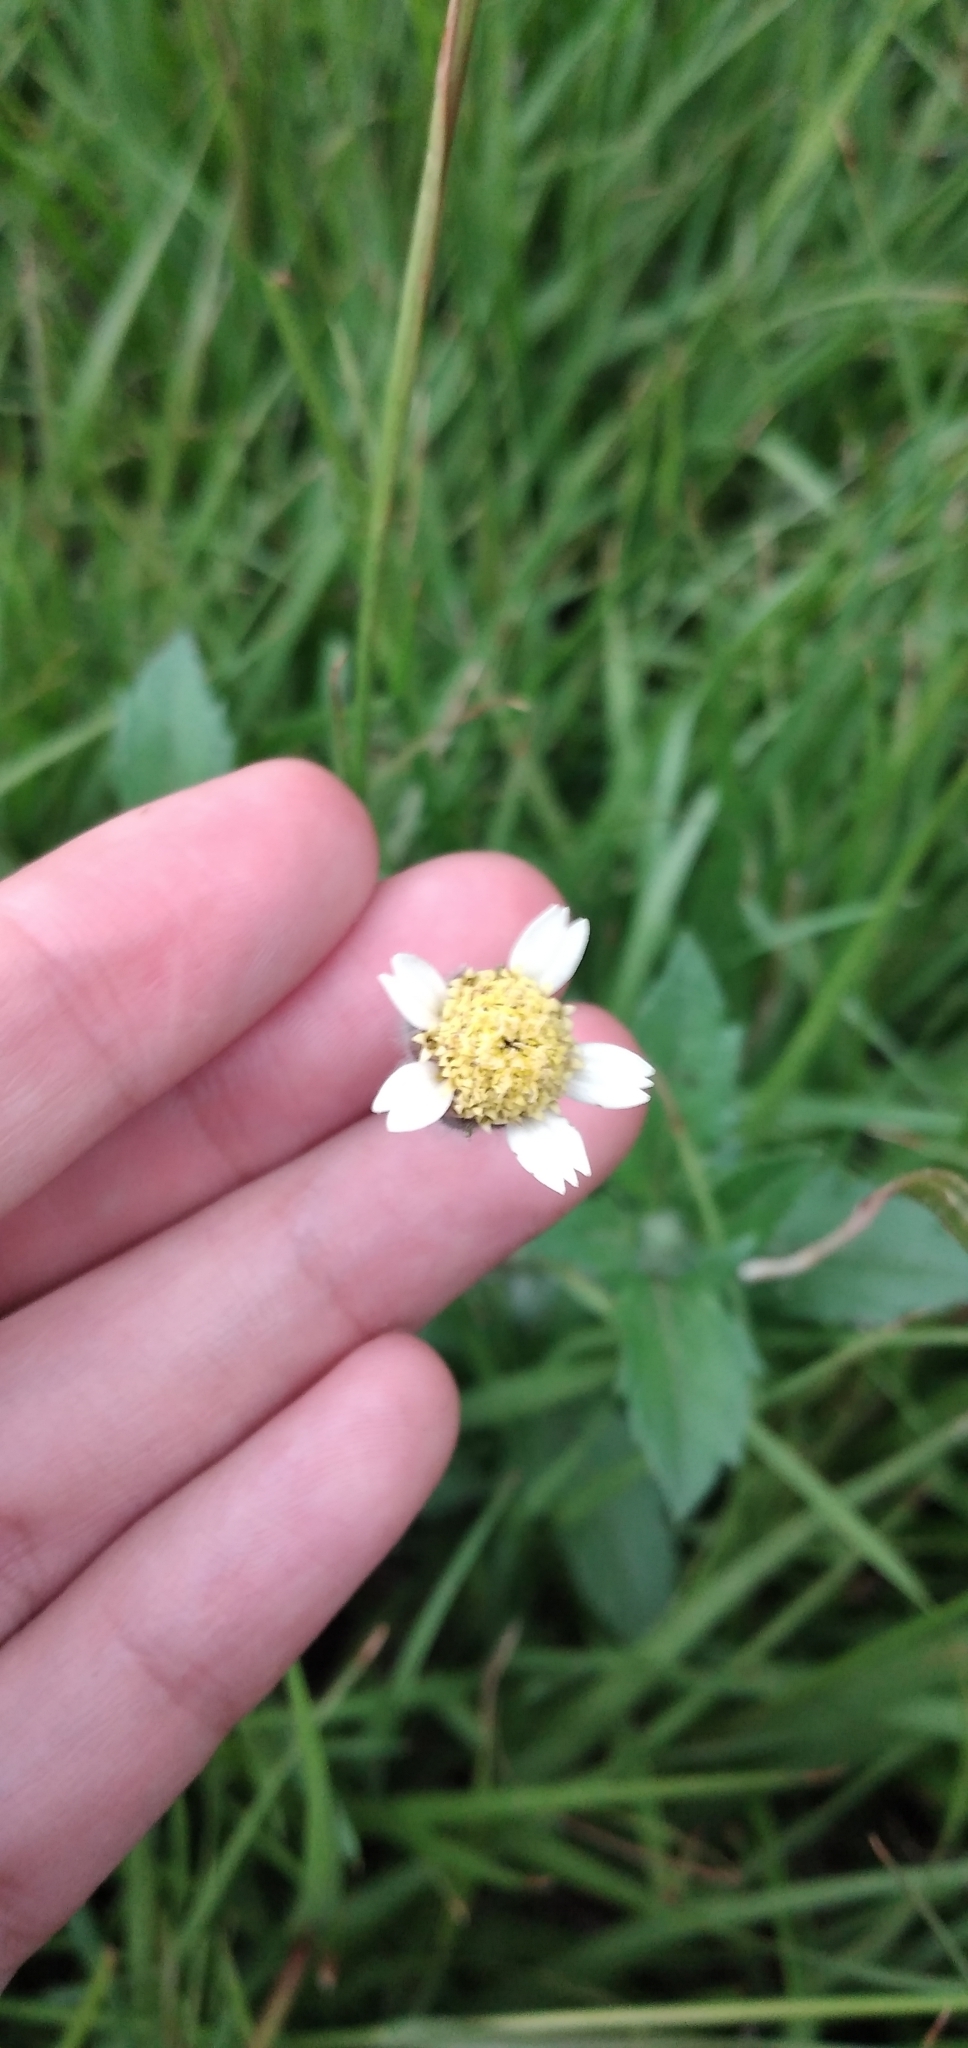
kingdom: Plantae
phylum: Tracheophyta
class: Magnoliopsida
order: Asterales
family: Asteraceae
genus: Tridax
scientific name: Tridax procumbens
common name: Coatbuttons
